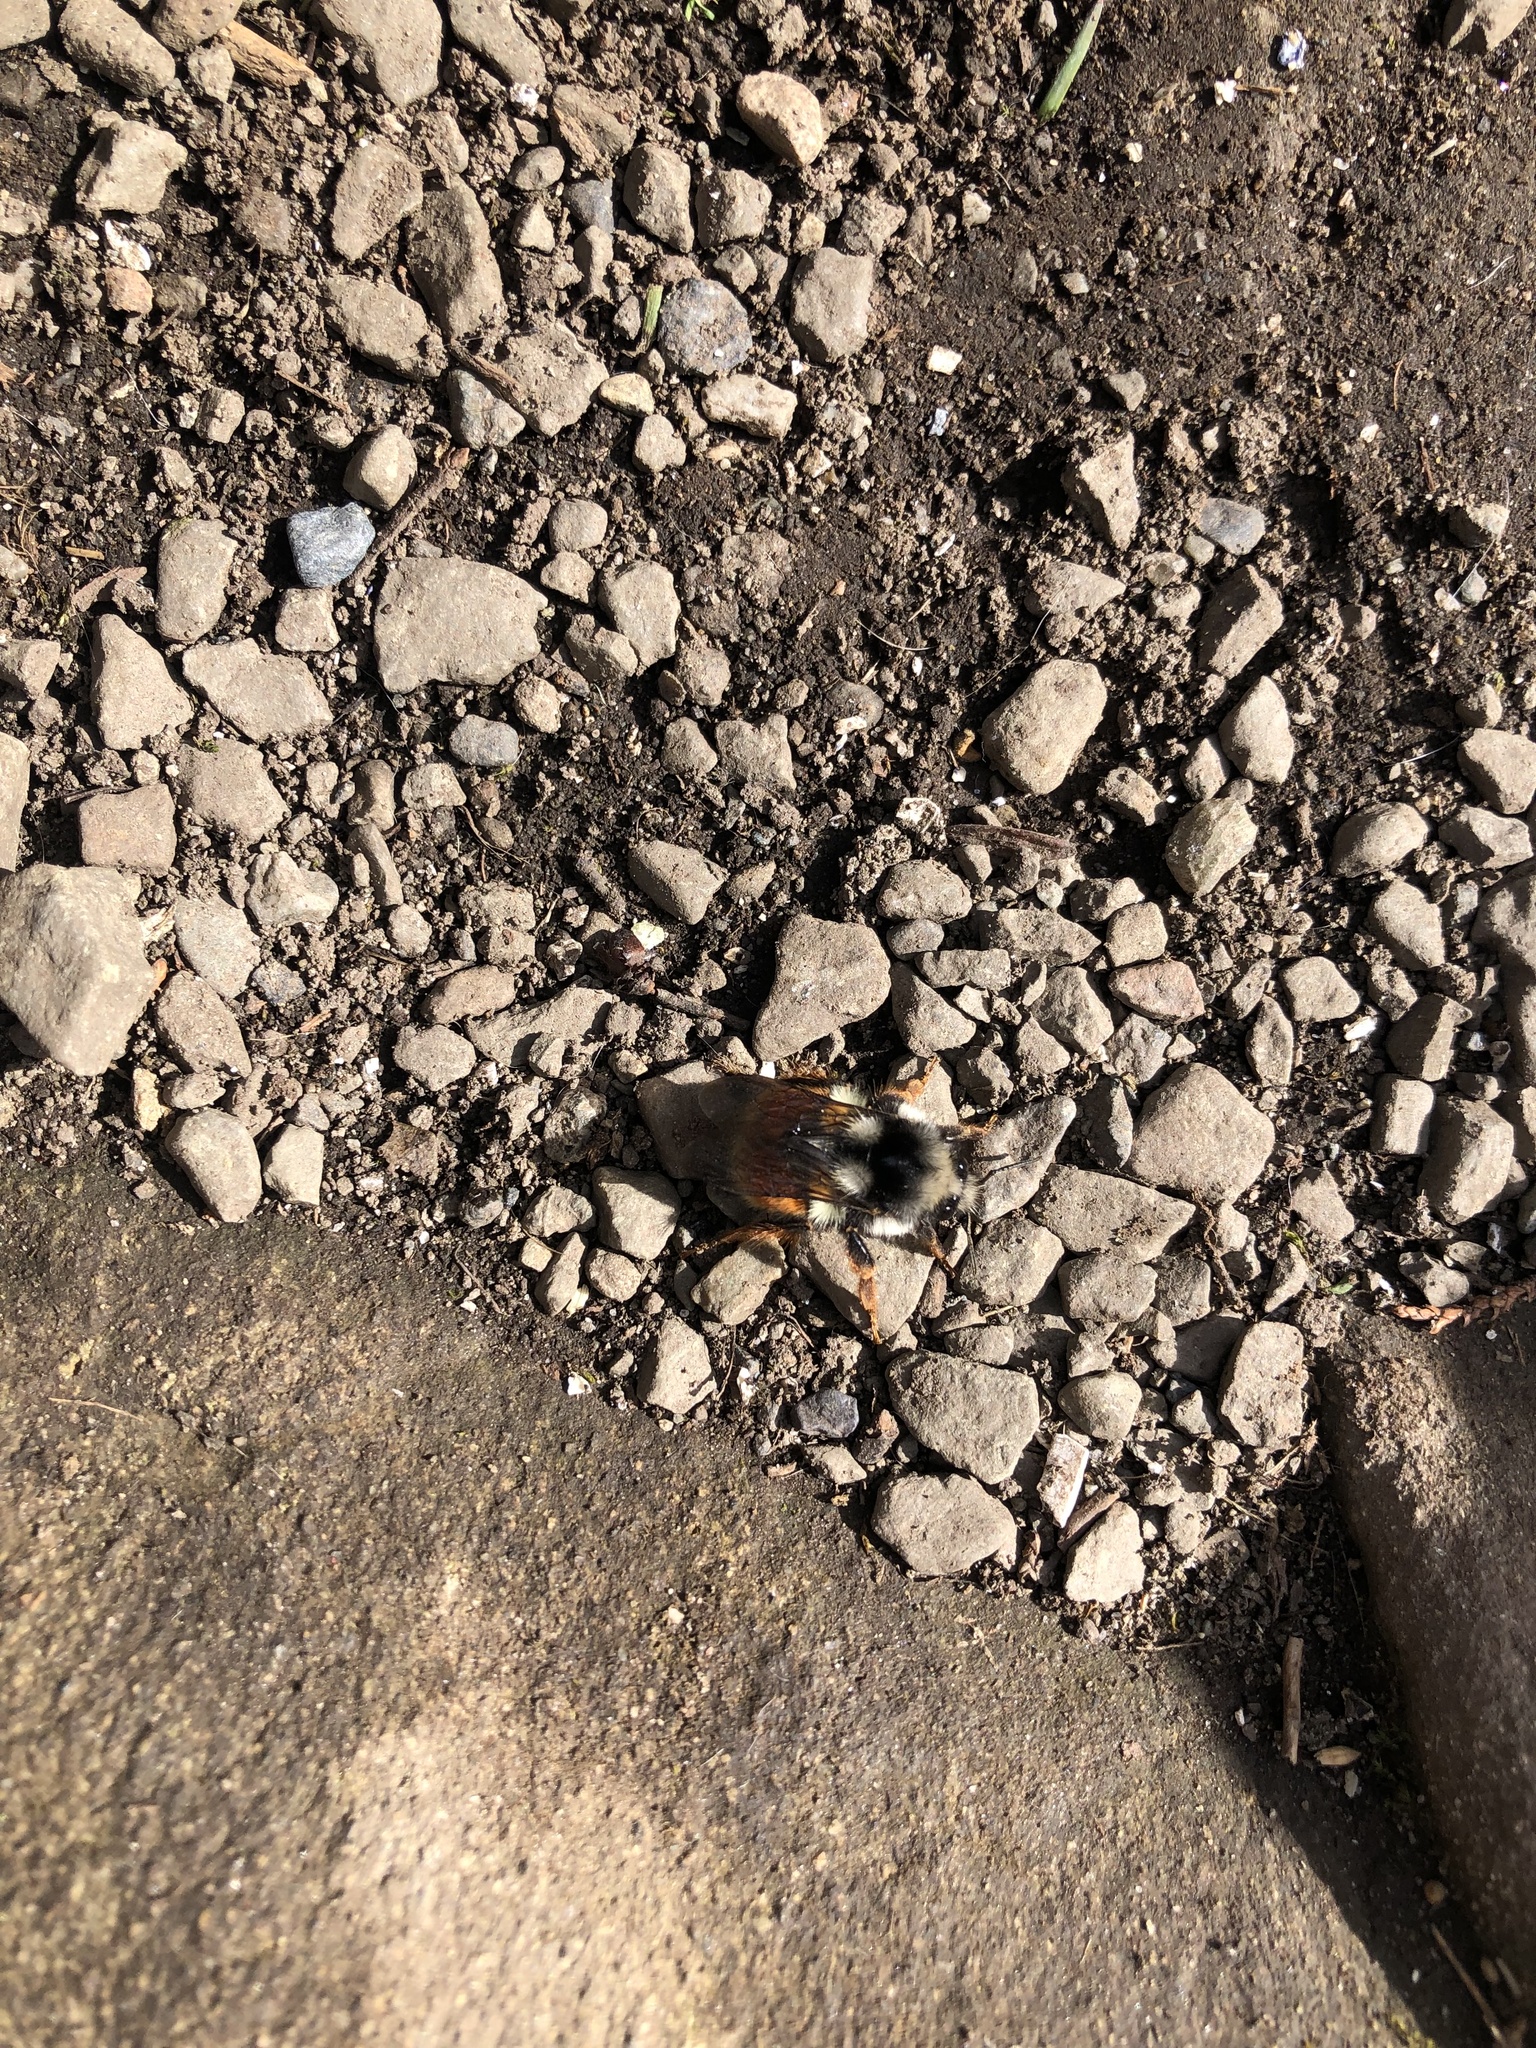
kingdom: Animalia
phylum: Arthropoda
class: Insecta
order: Hymenoptera
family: Apidae
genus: Bombus
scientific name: Bombus vancouverensis
